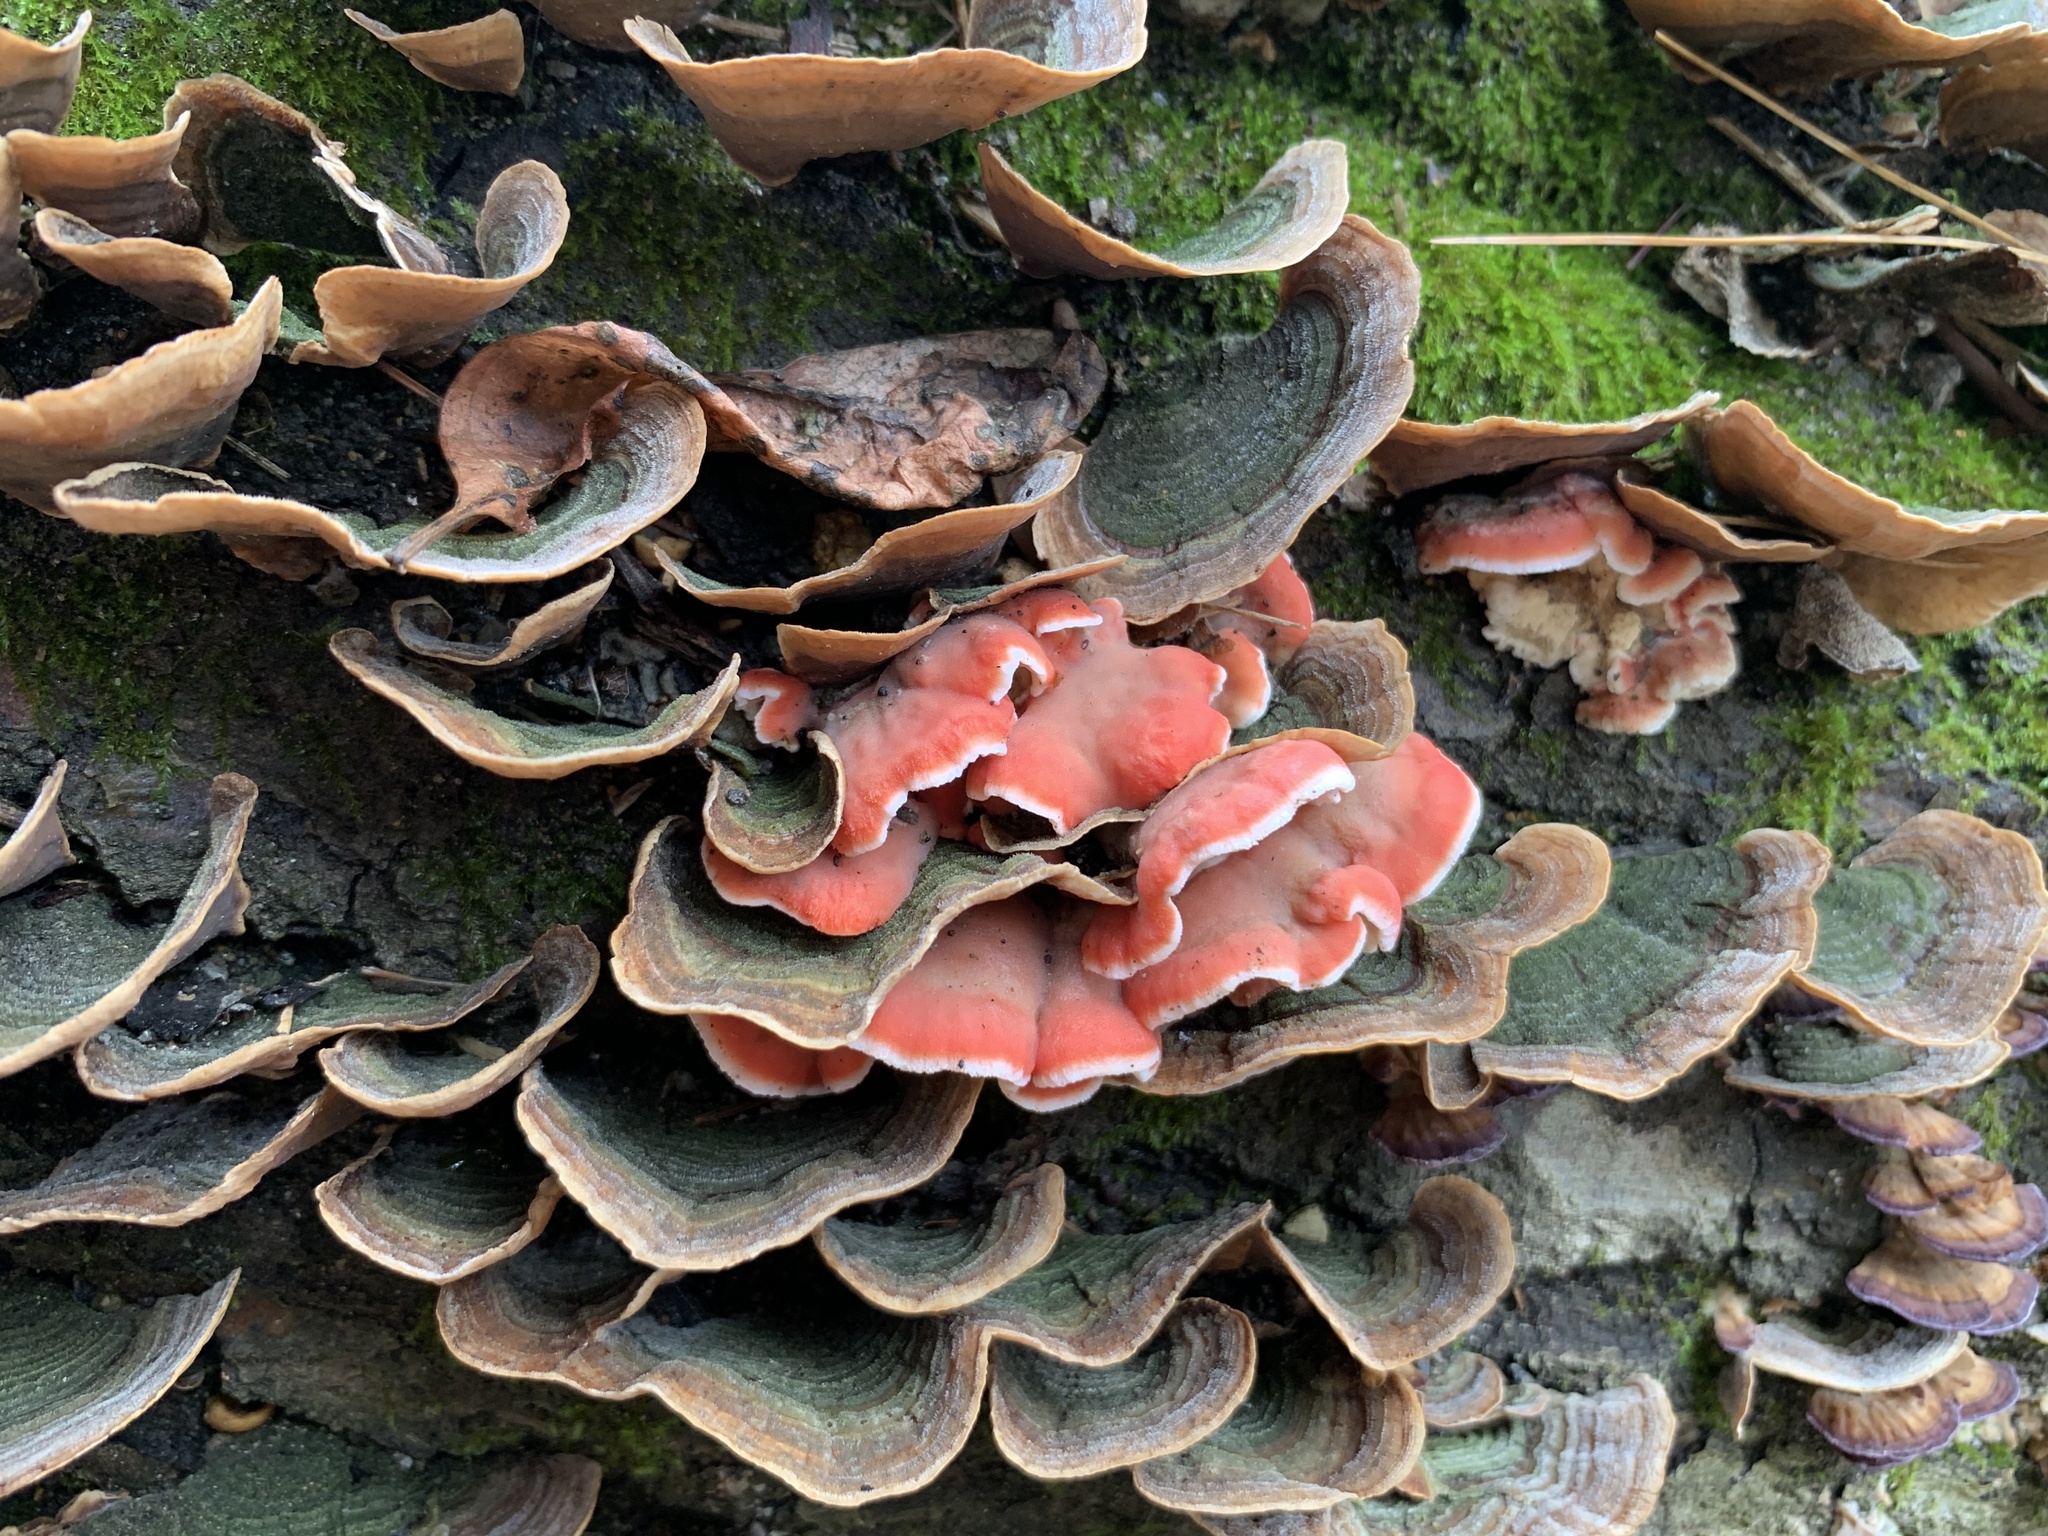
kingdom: Fungi
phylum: Basidiomycota
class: Agaricomycetes
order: Polyporales
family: Irpicaceae
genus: Byssomerulius
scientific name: Byssomerulius incarnatus
